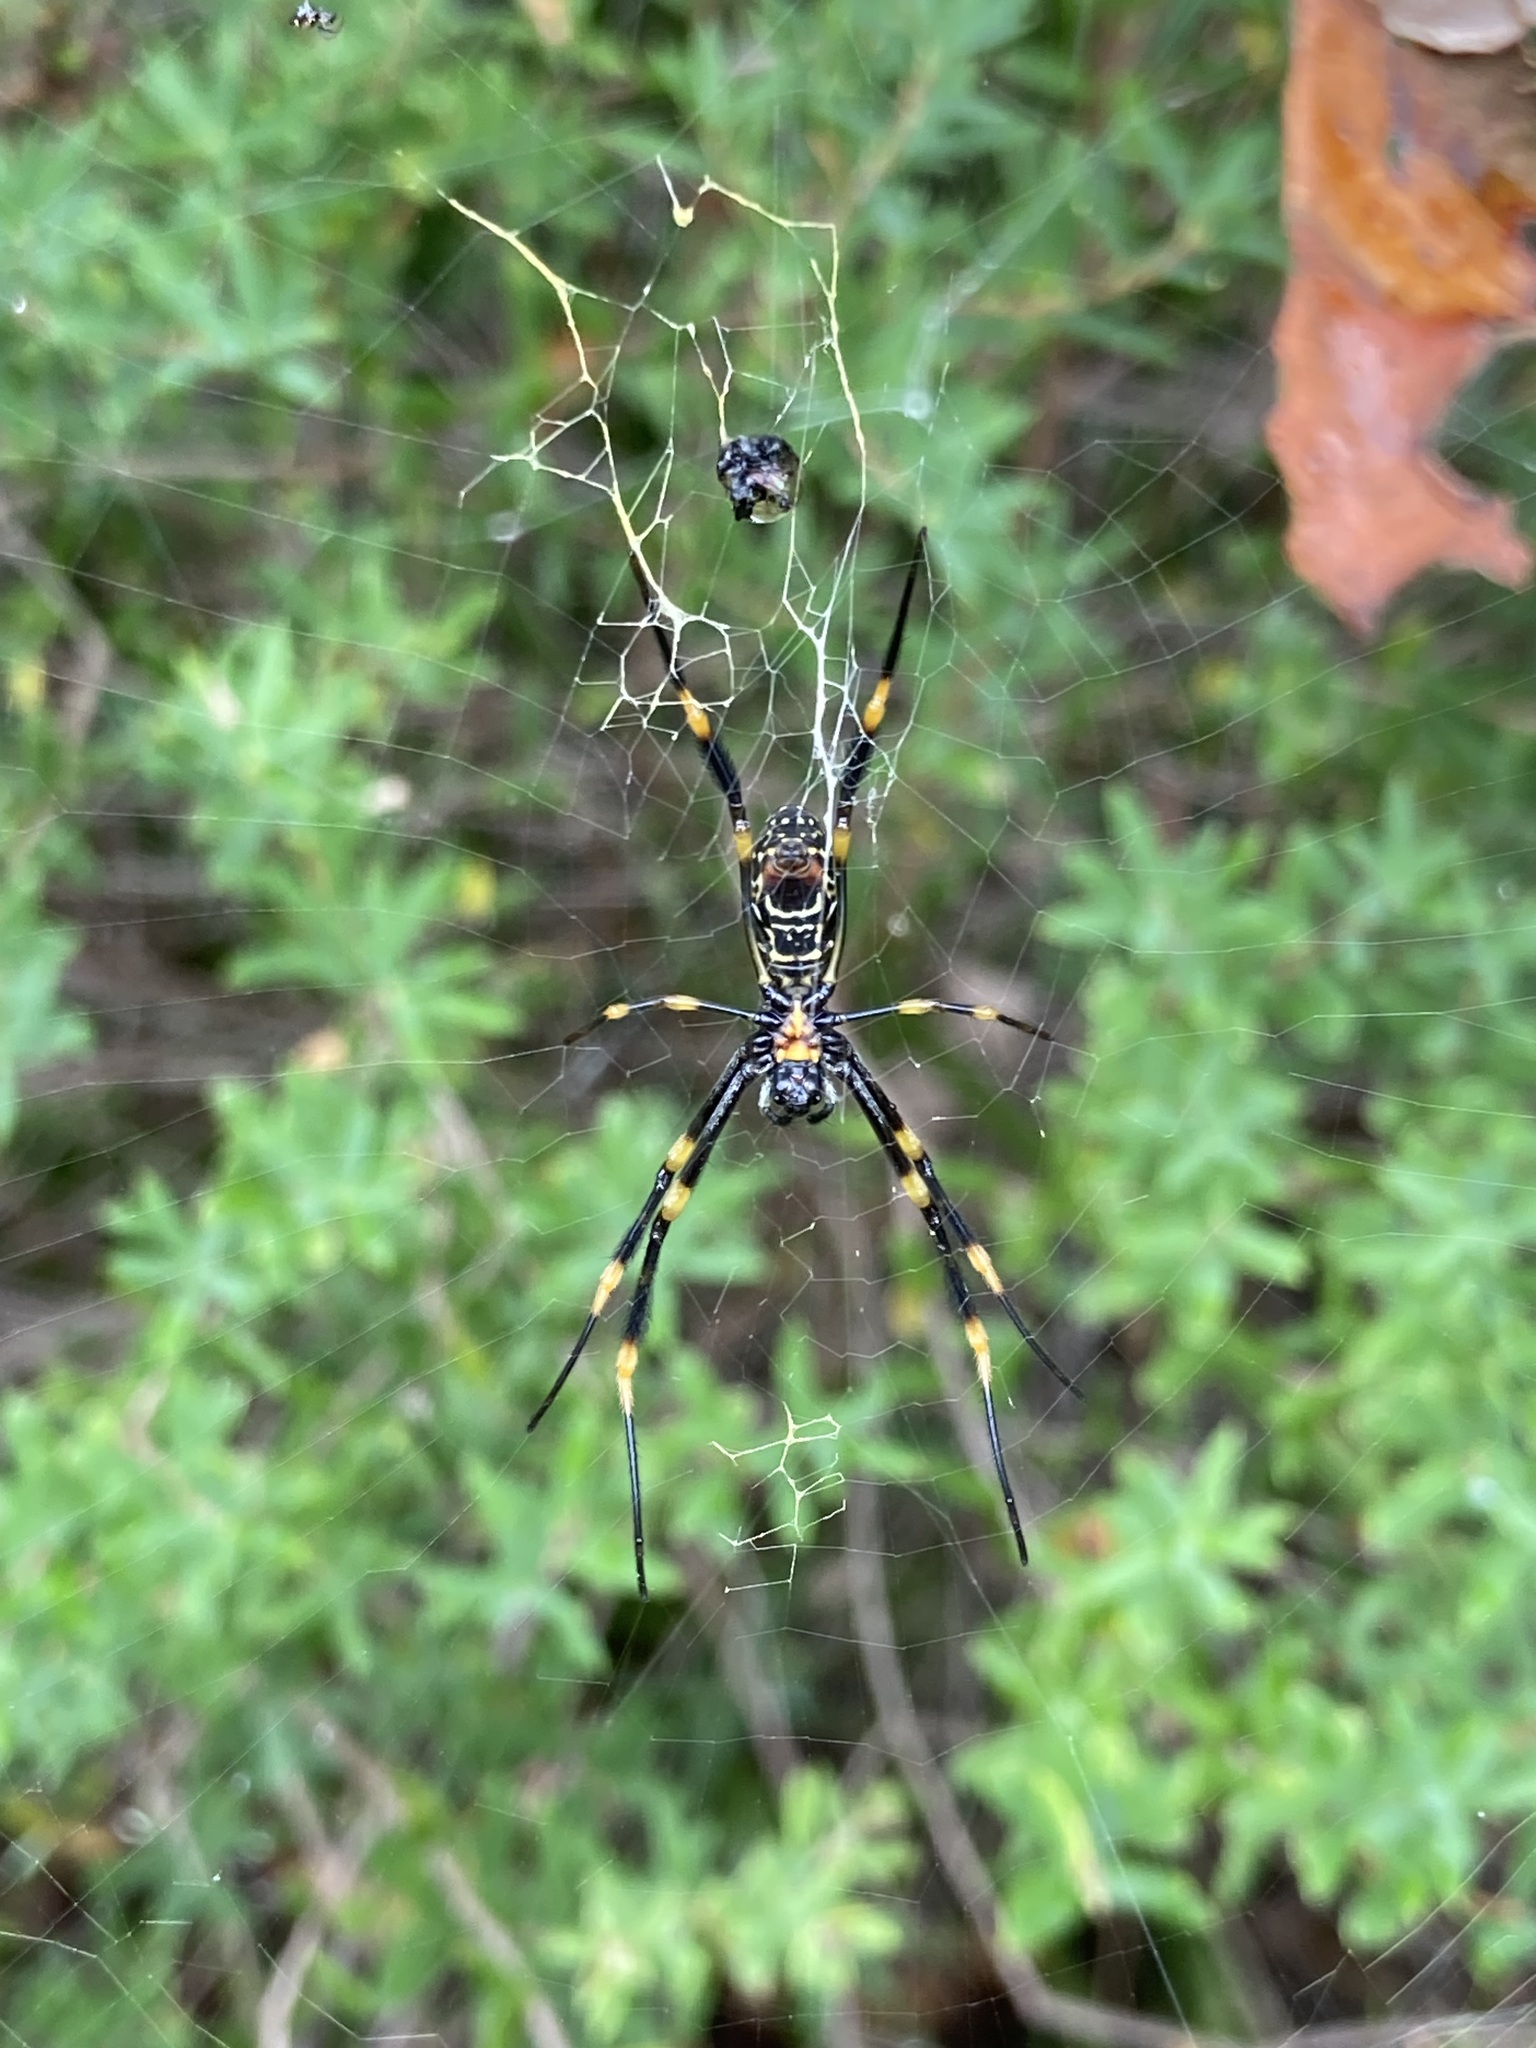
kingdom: Animalia
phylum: Arthropoda
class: Arachnida
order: Araneae
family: Araneidae
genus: Trichonephila
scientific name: Trichonephila plumipes
